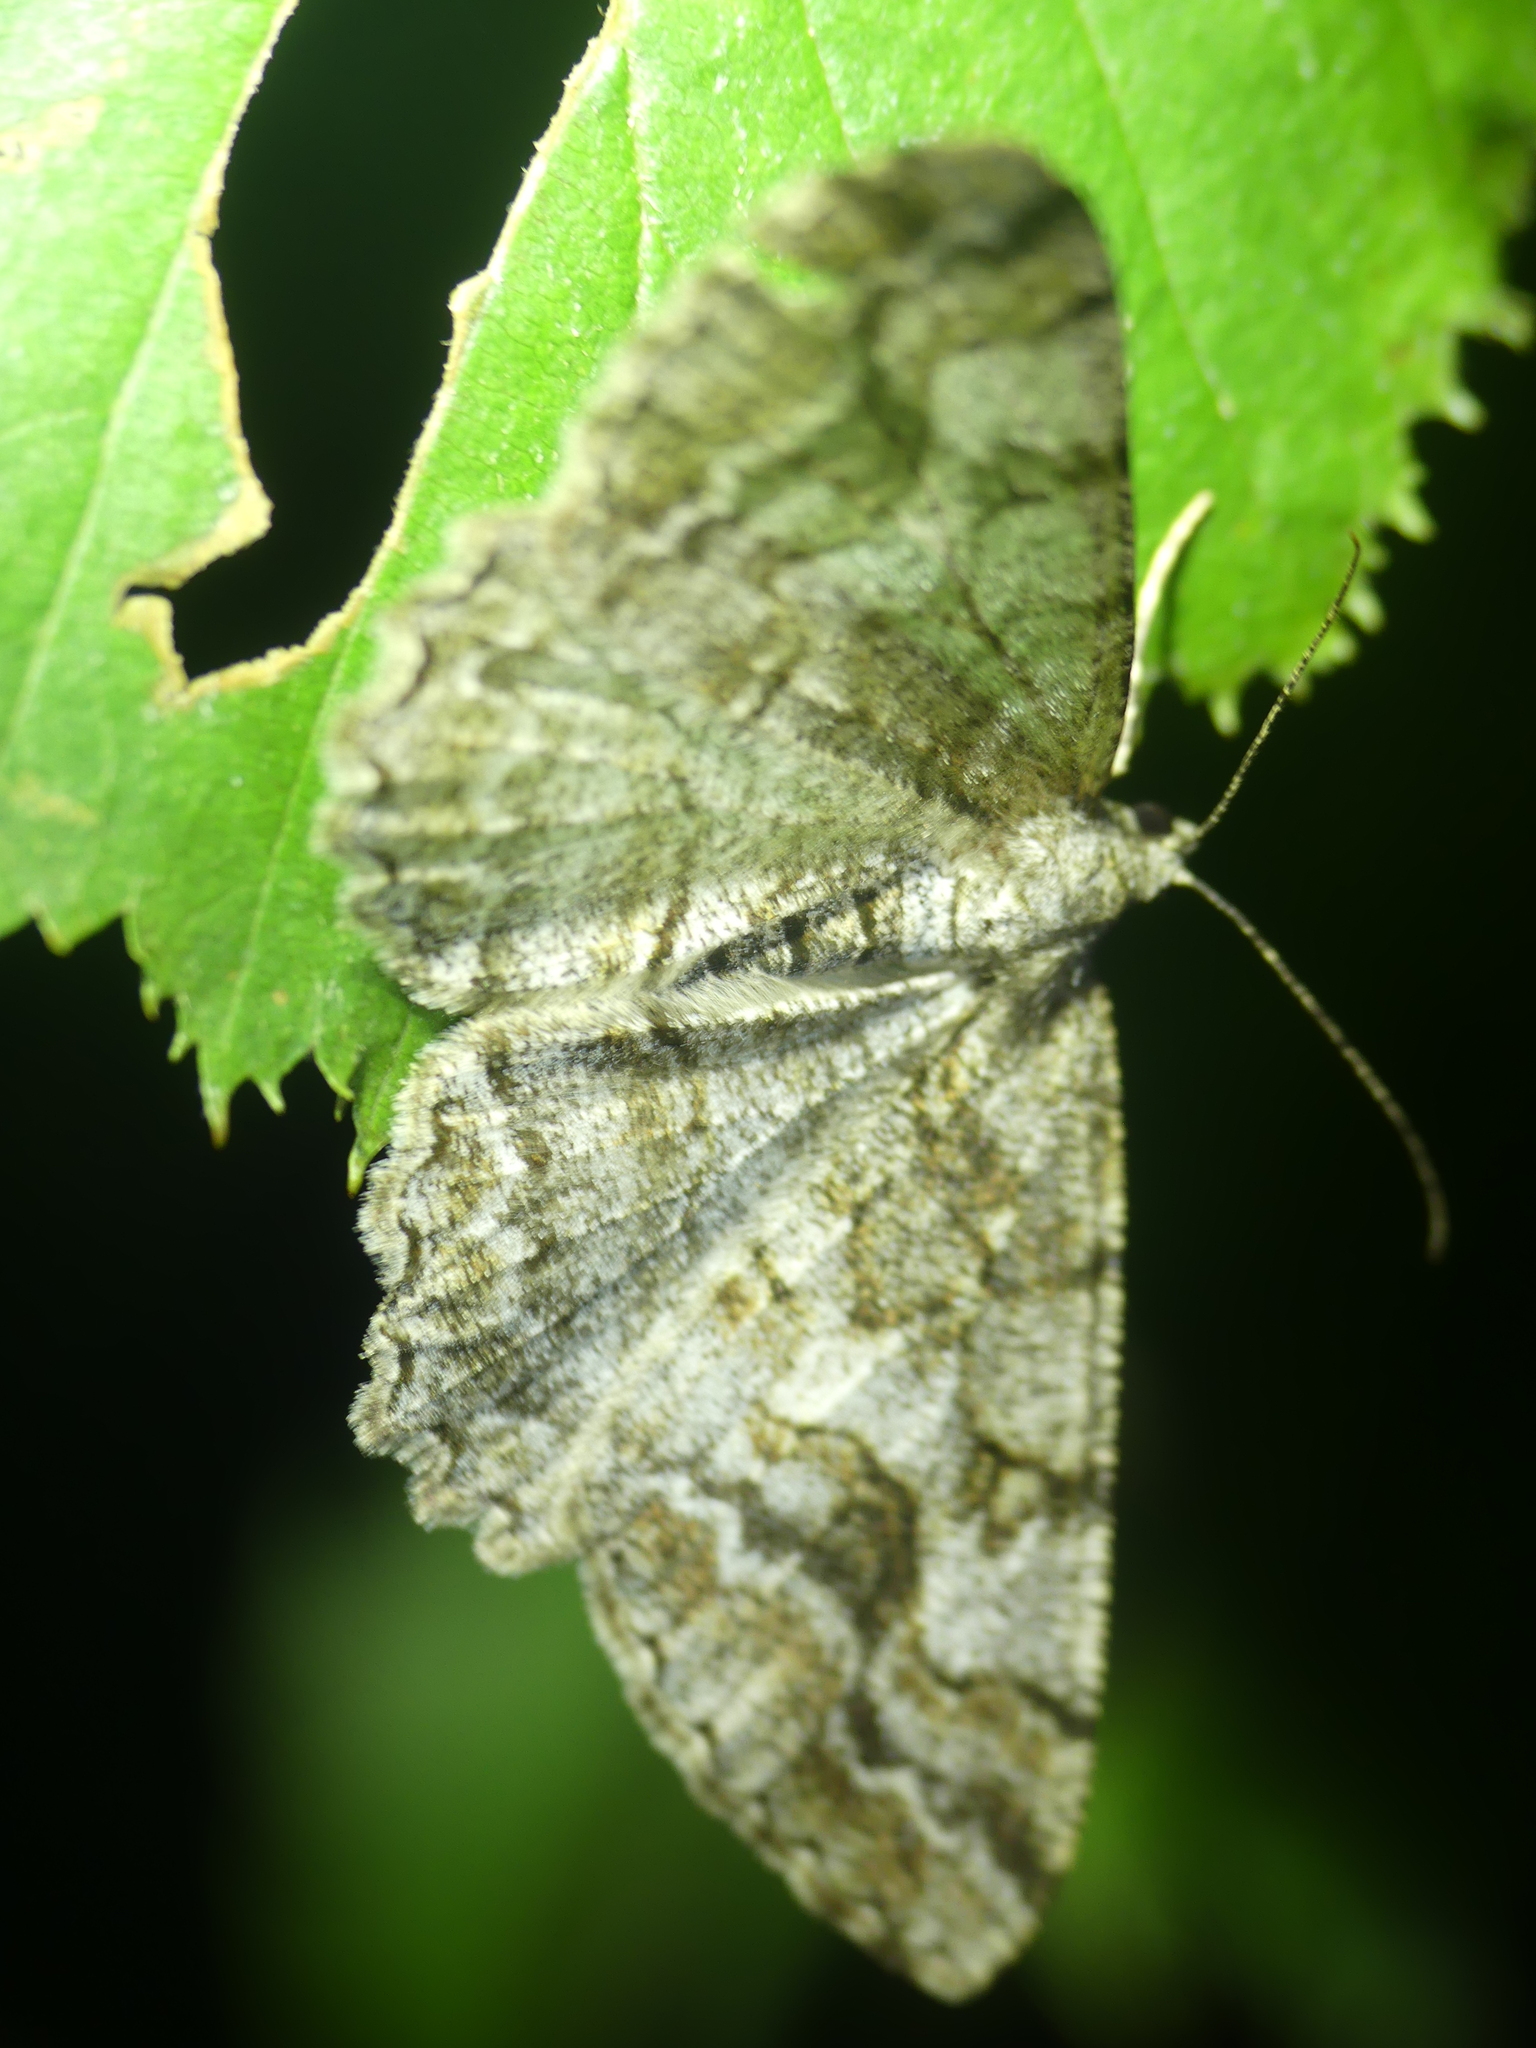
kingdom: Animalia
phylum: Arthropoda
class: Insecta
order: Lepidoptera
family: Geometridae
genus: Alcis
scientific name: Alcis repandata
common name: Mottled beauty
